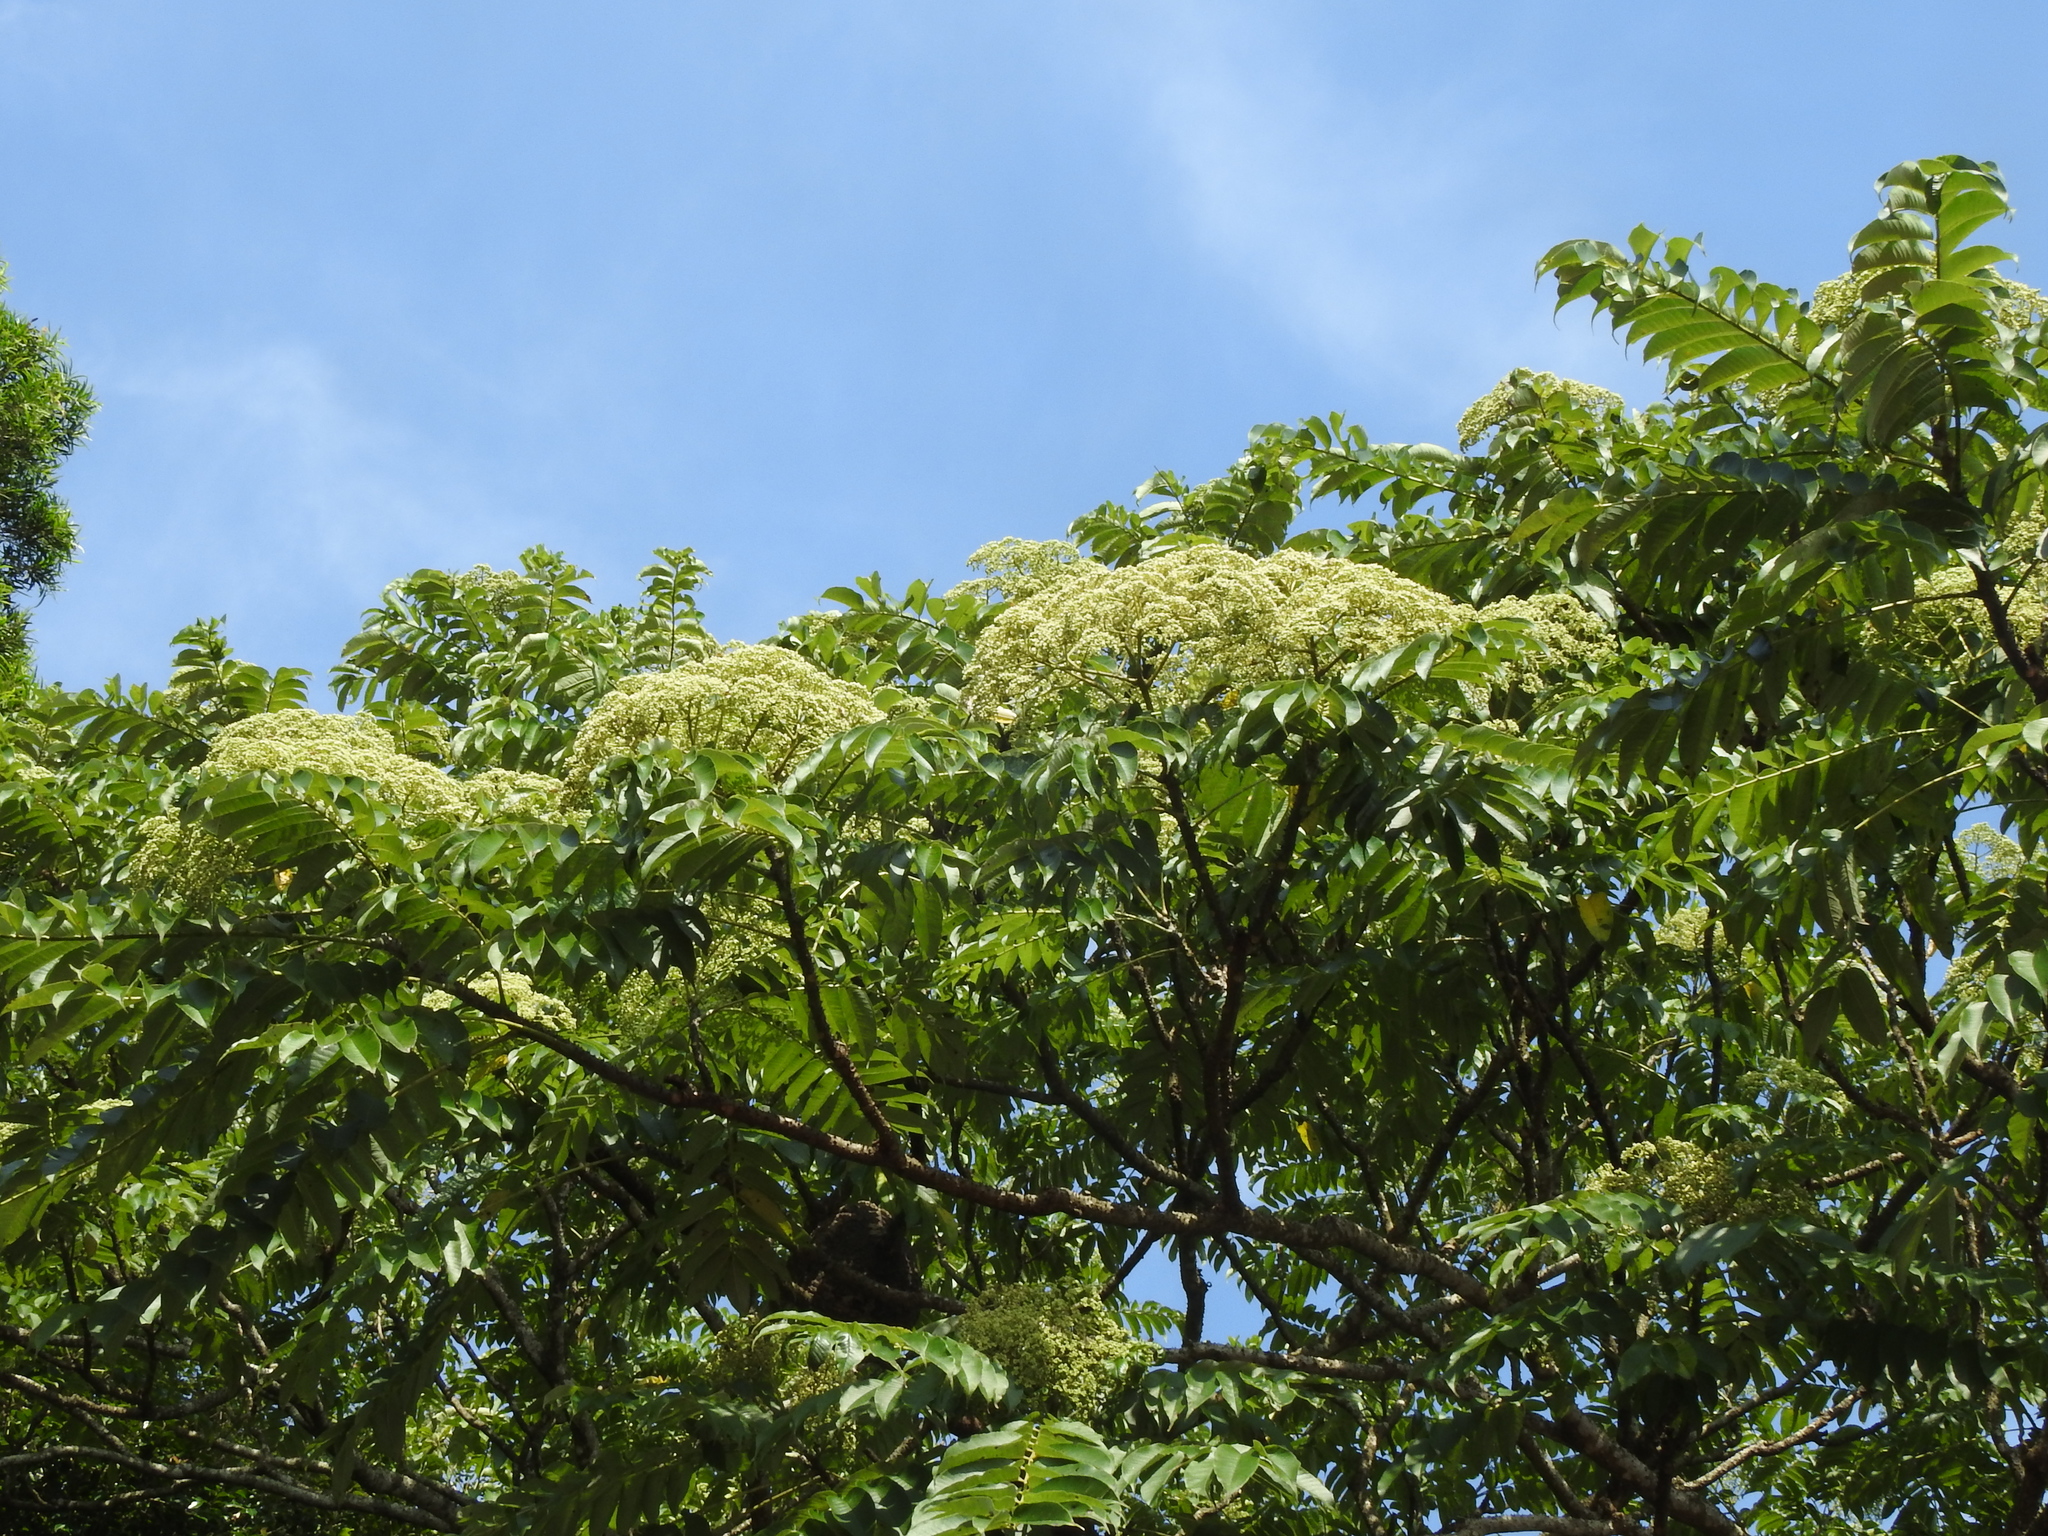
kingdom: Plantae
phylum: Tracheophyta
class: Magnoliopsida
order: Sapindales
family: Rutaceae
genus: Zanthoxylum
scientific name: Zanthoxylum ailanthoides
